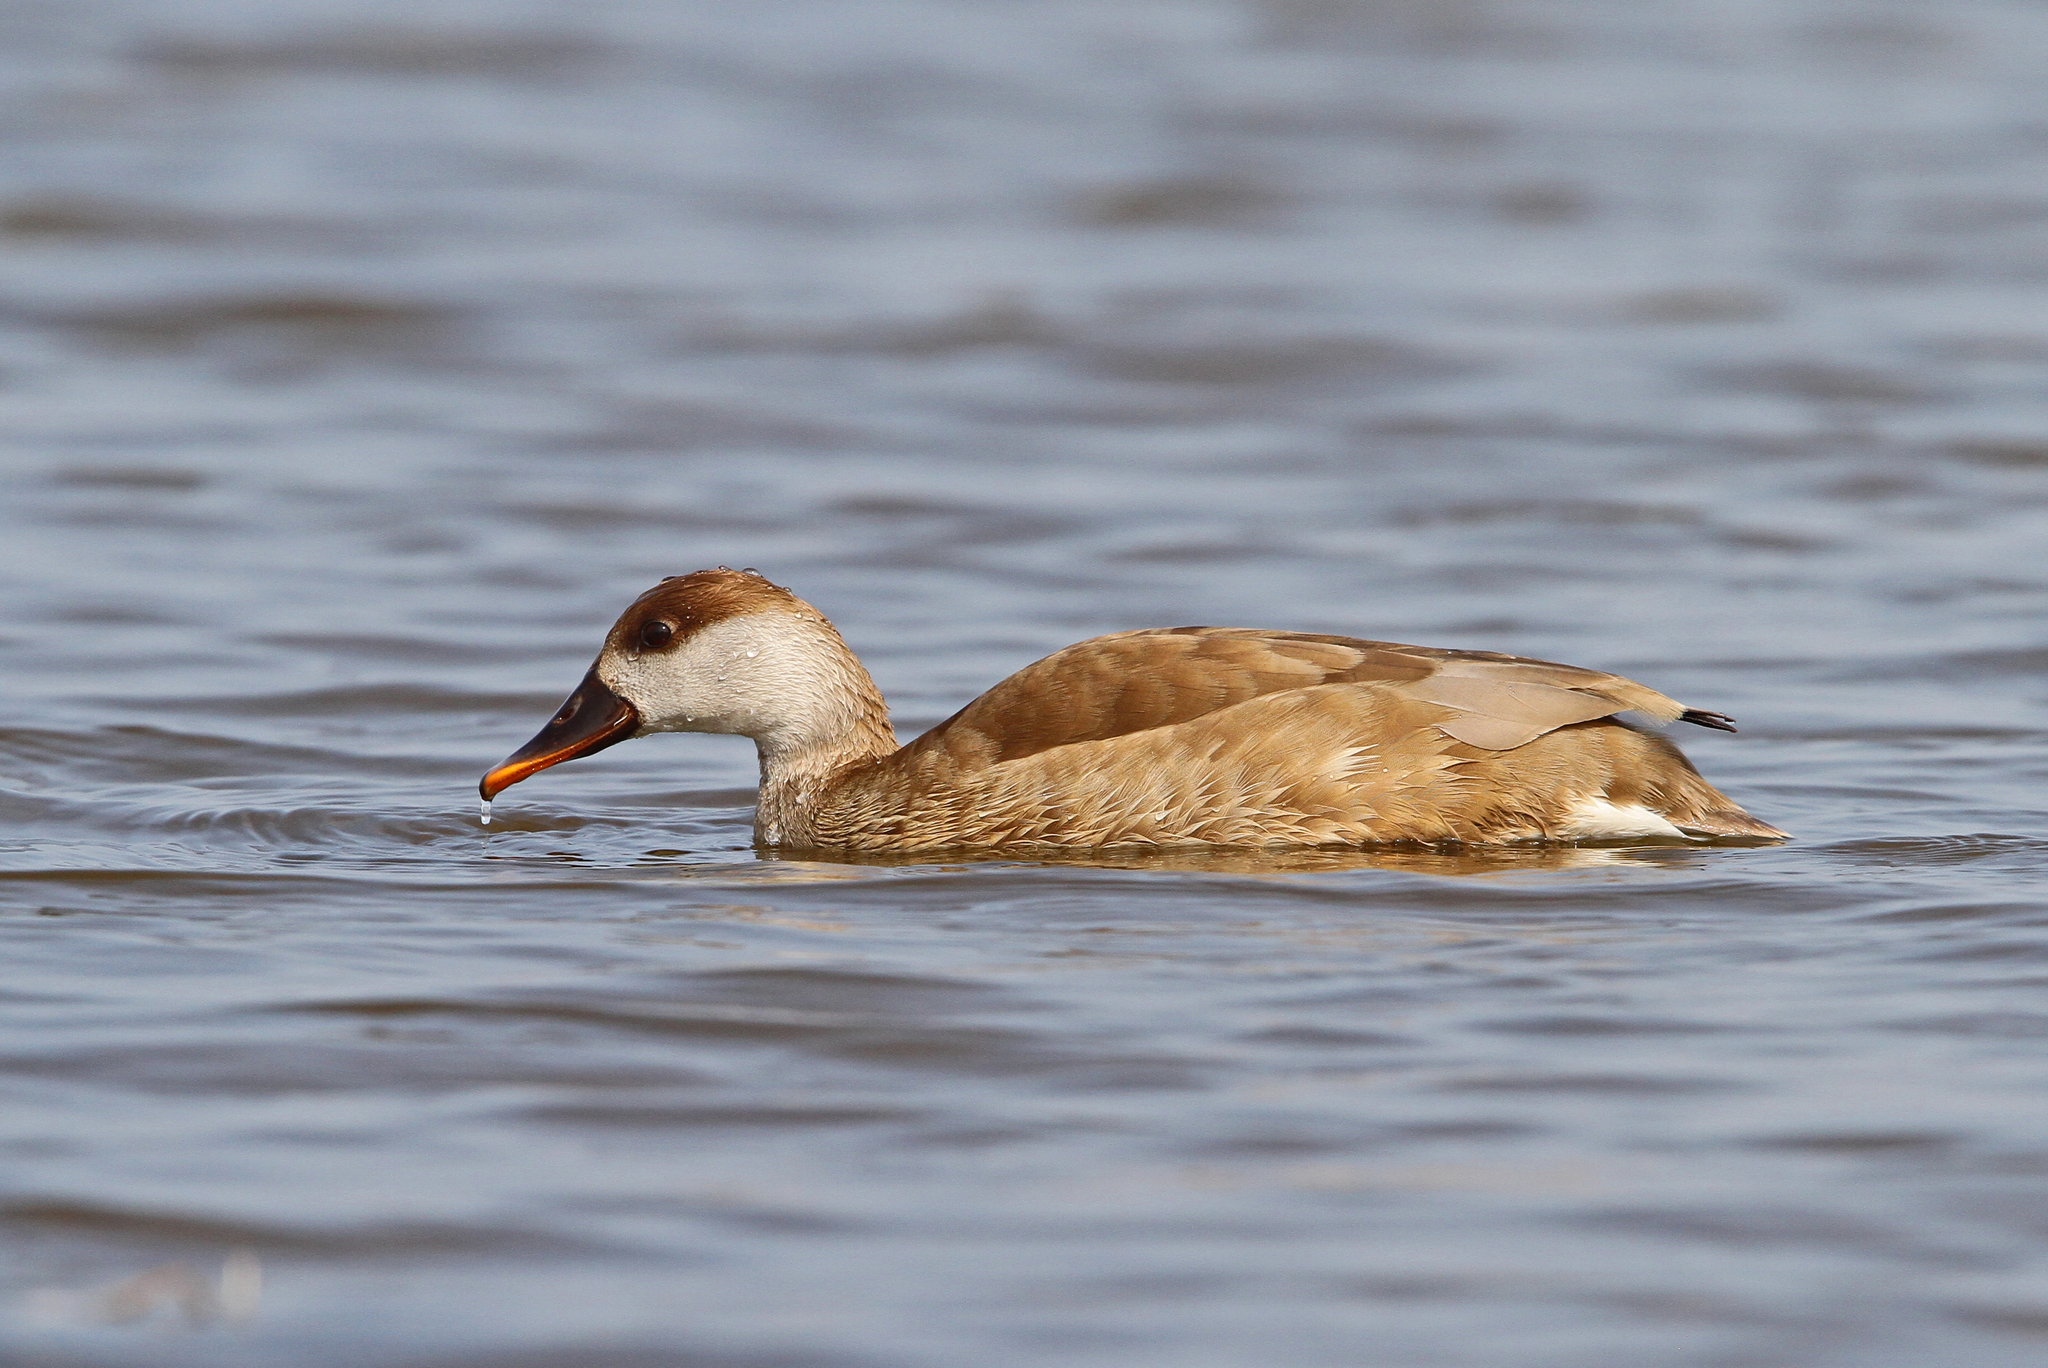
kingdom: Animalia
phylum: Chordata
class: Aves
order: Anseriformes
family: Anatidae
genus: Netta
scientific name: Netta rufina
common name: Red-crested pochard
